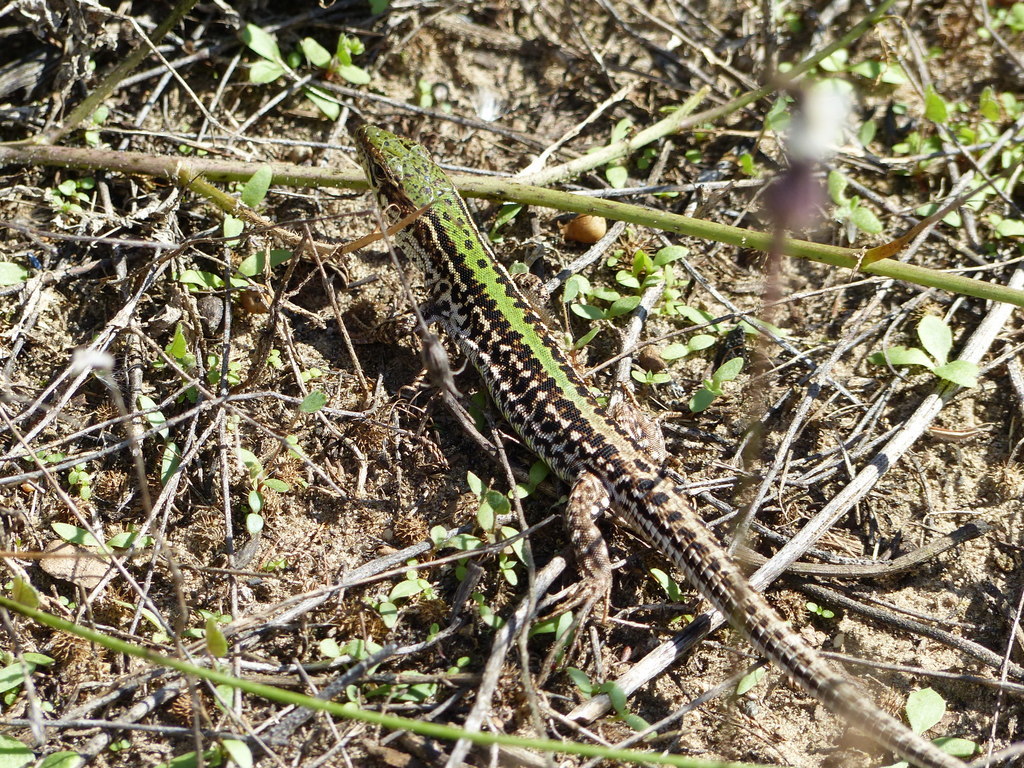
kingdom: Animalia
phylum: Chordata
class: Squamata
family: Lacertidae
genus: Podarcis
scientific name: Podarcis tauricus
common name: Balkan wall lizard
